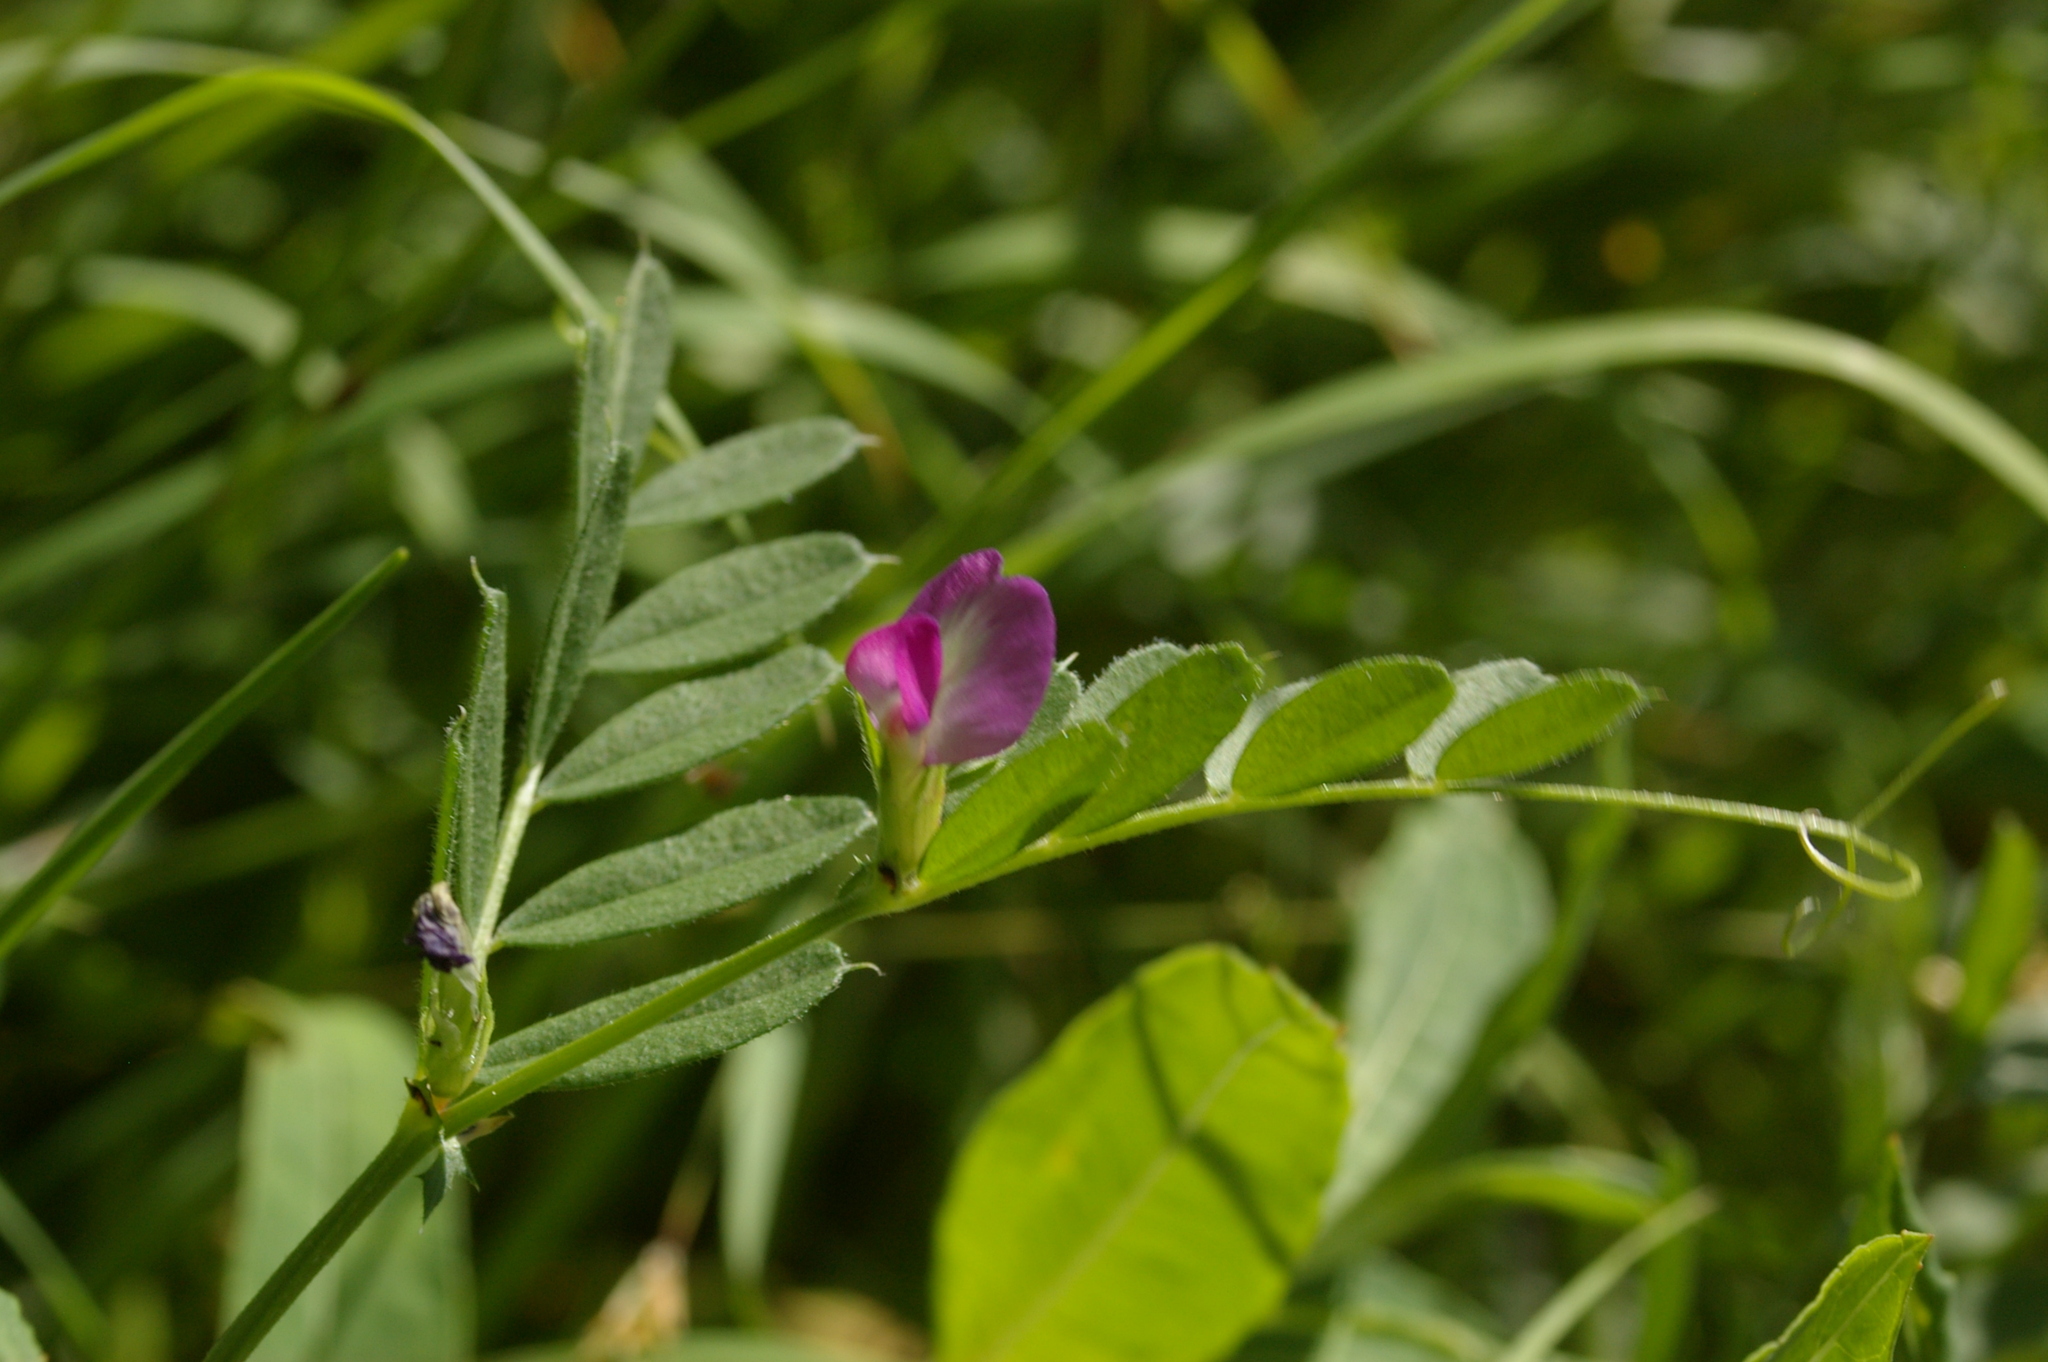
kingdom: Plantae
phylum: Tracheophyta
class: Magnoliopsida
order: Fabales
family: Fabaceae
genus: Vicia
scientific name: Vicia sativa
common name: Garden vetch
